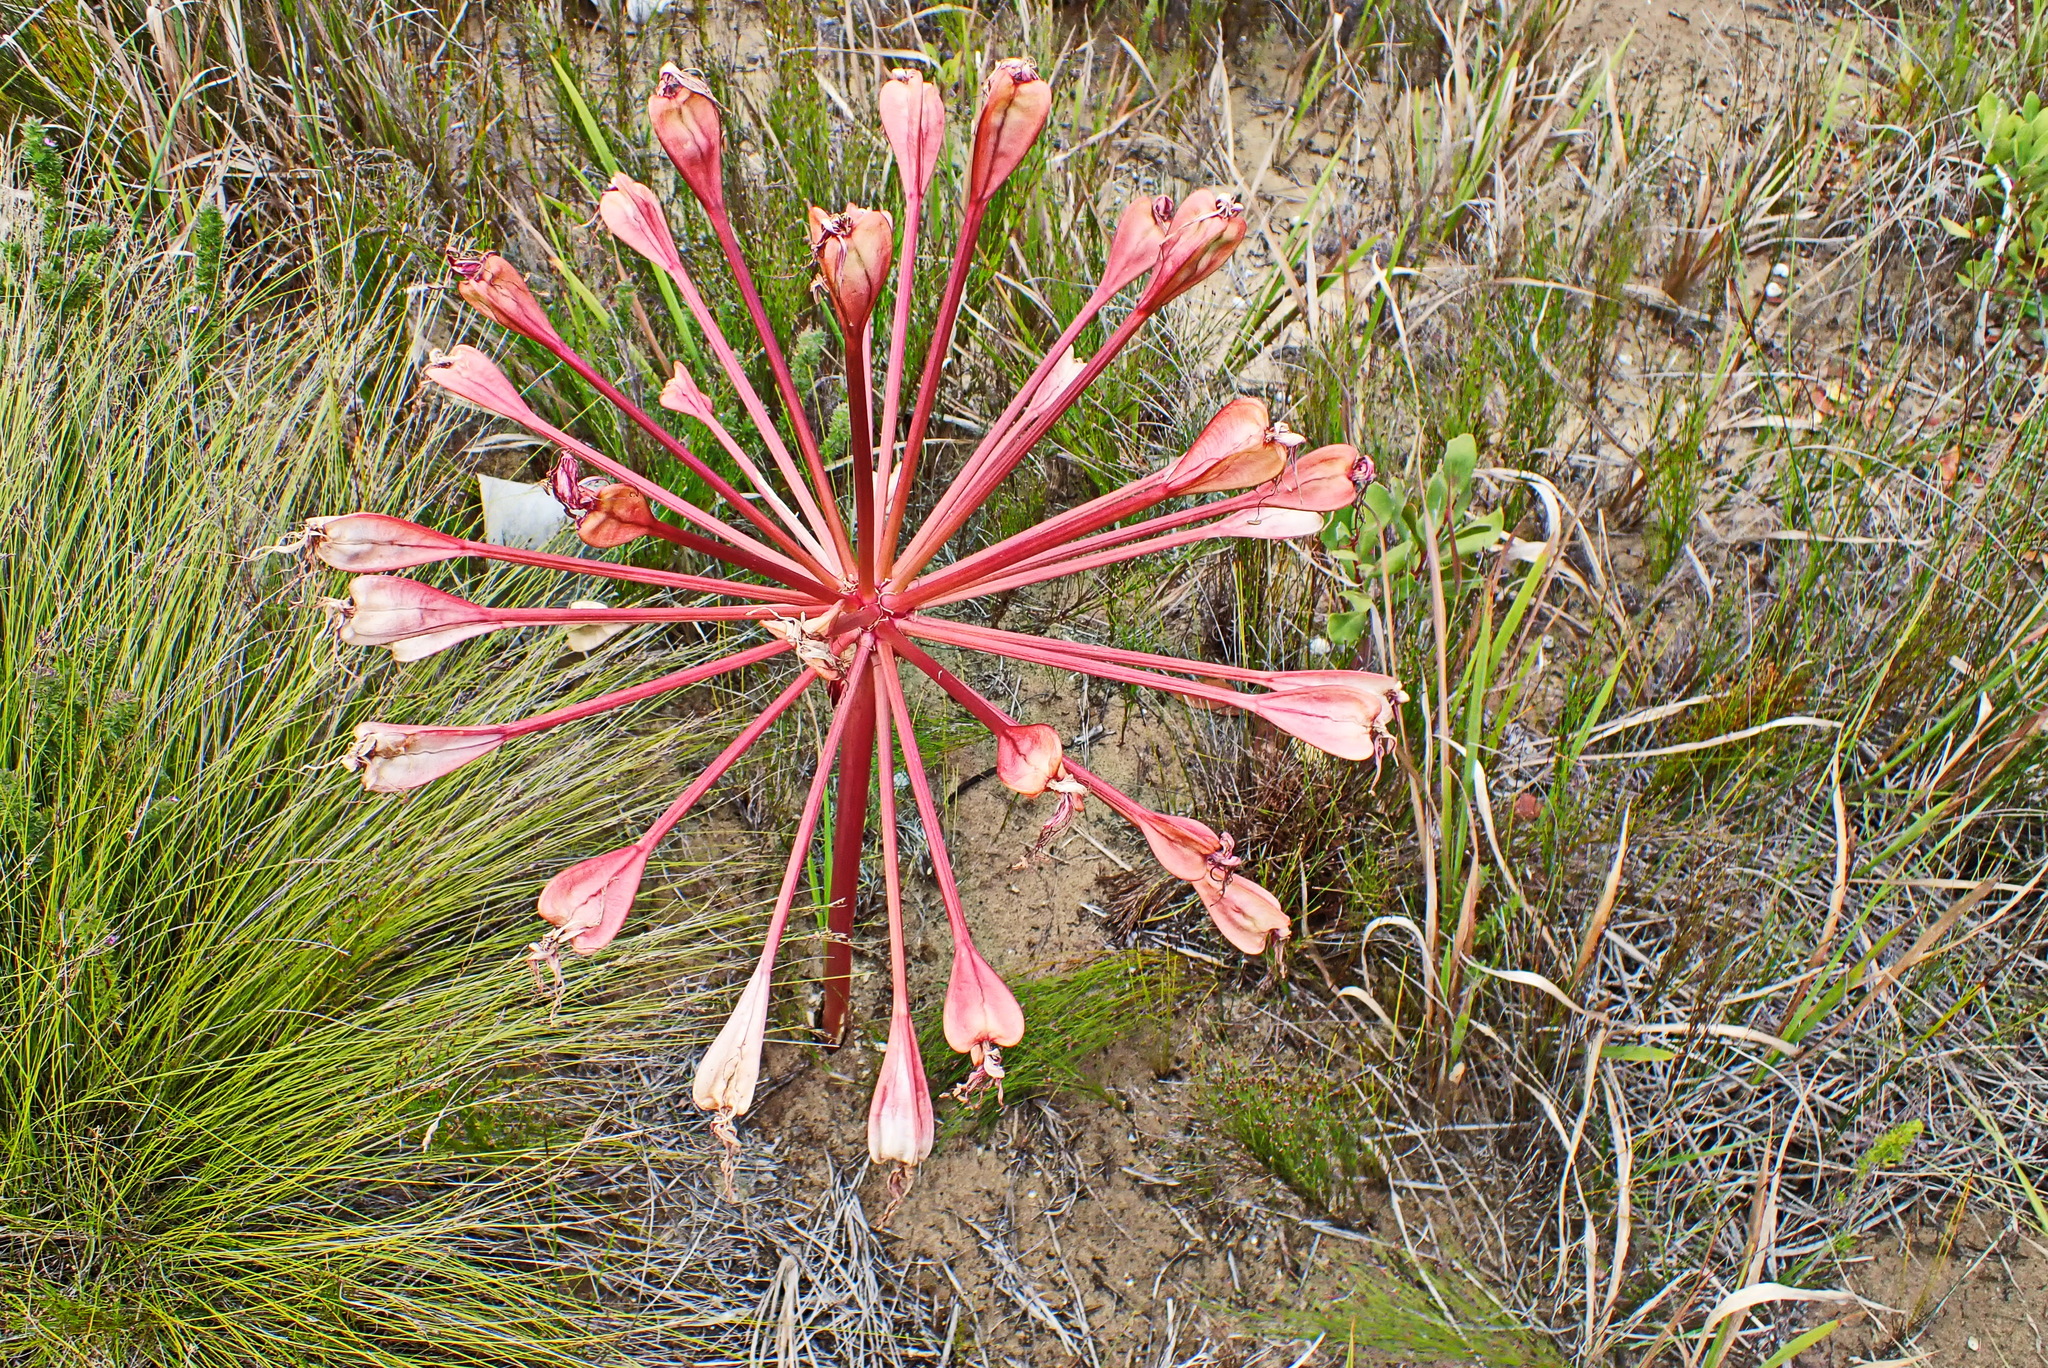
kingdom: Plantae
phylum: Tracheophyta
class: Liliopsida
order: Asparagales
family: Amaryllidaceae
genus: Brunsvigia
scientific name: Brunsvigia orientalis
